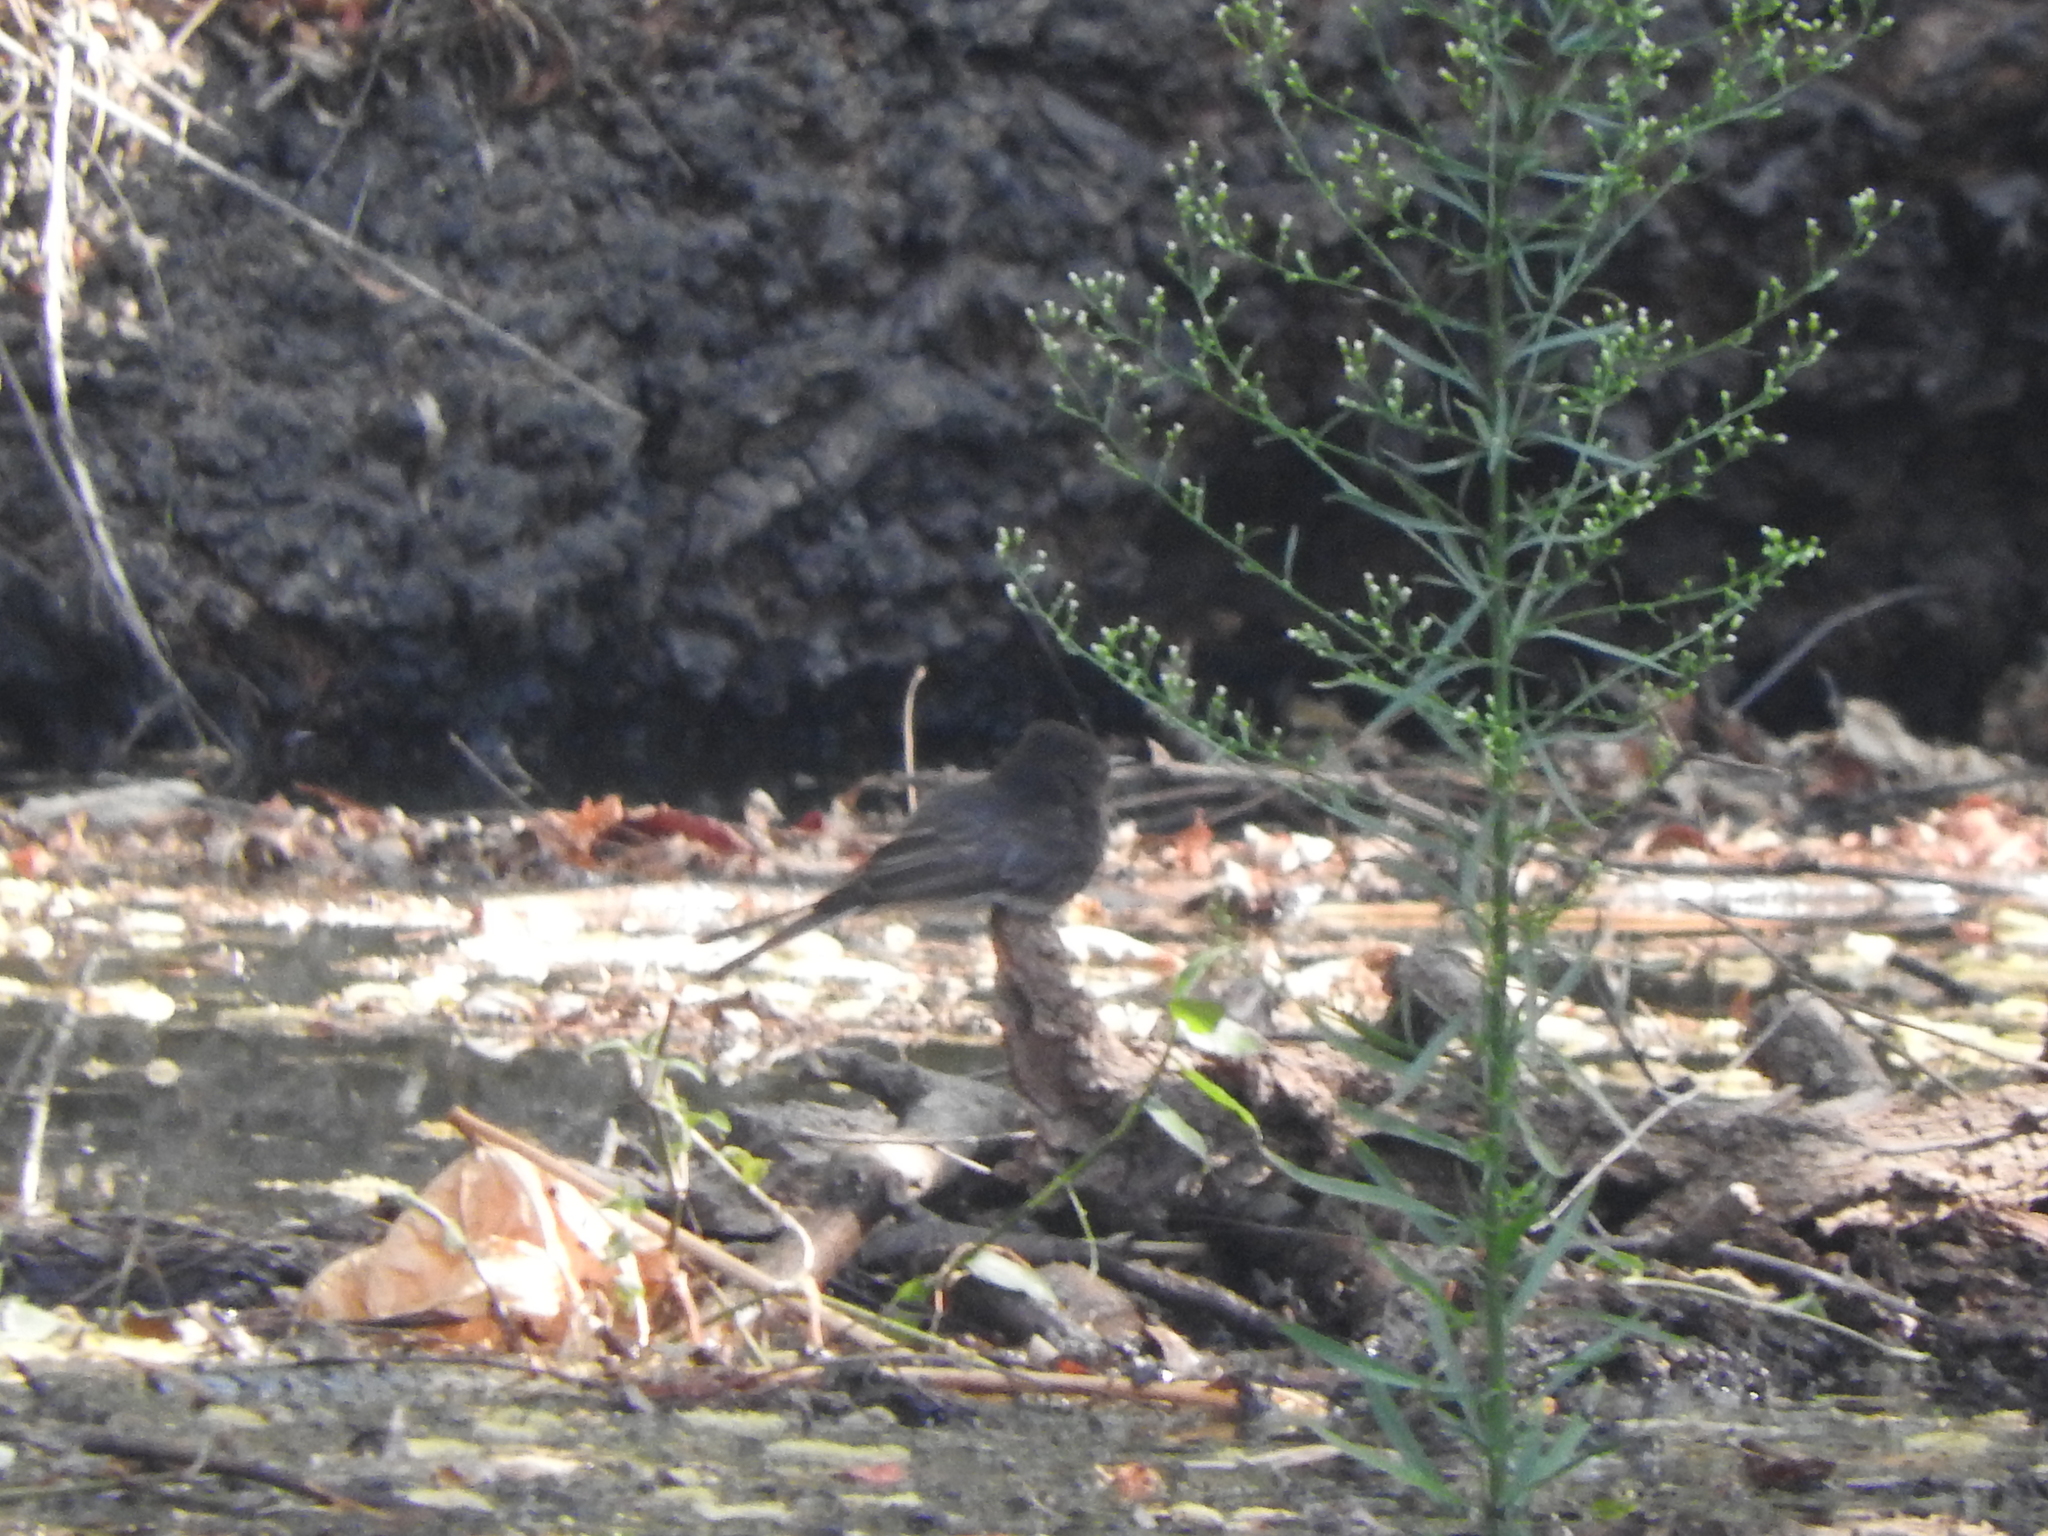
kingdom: Animalia
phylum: Chordata
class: Aves
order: Passeriformes
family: Tyrannidae
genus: Sayornis
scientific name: Sayornis nigricans
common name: Black phoebe
